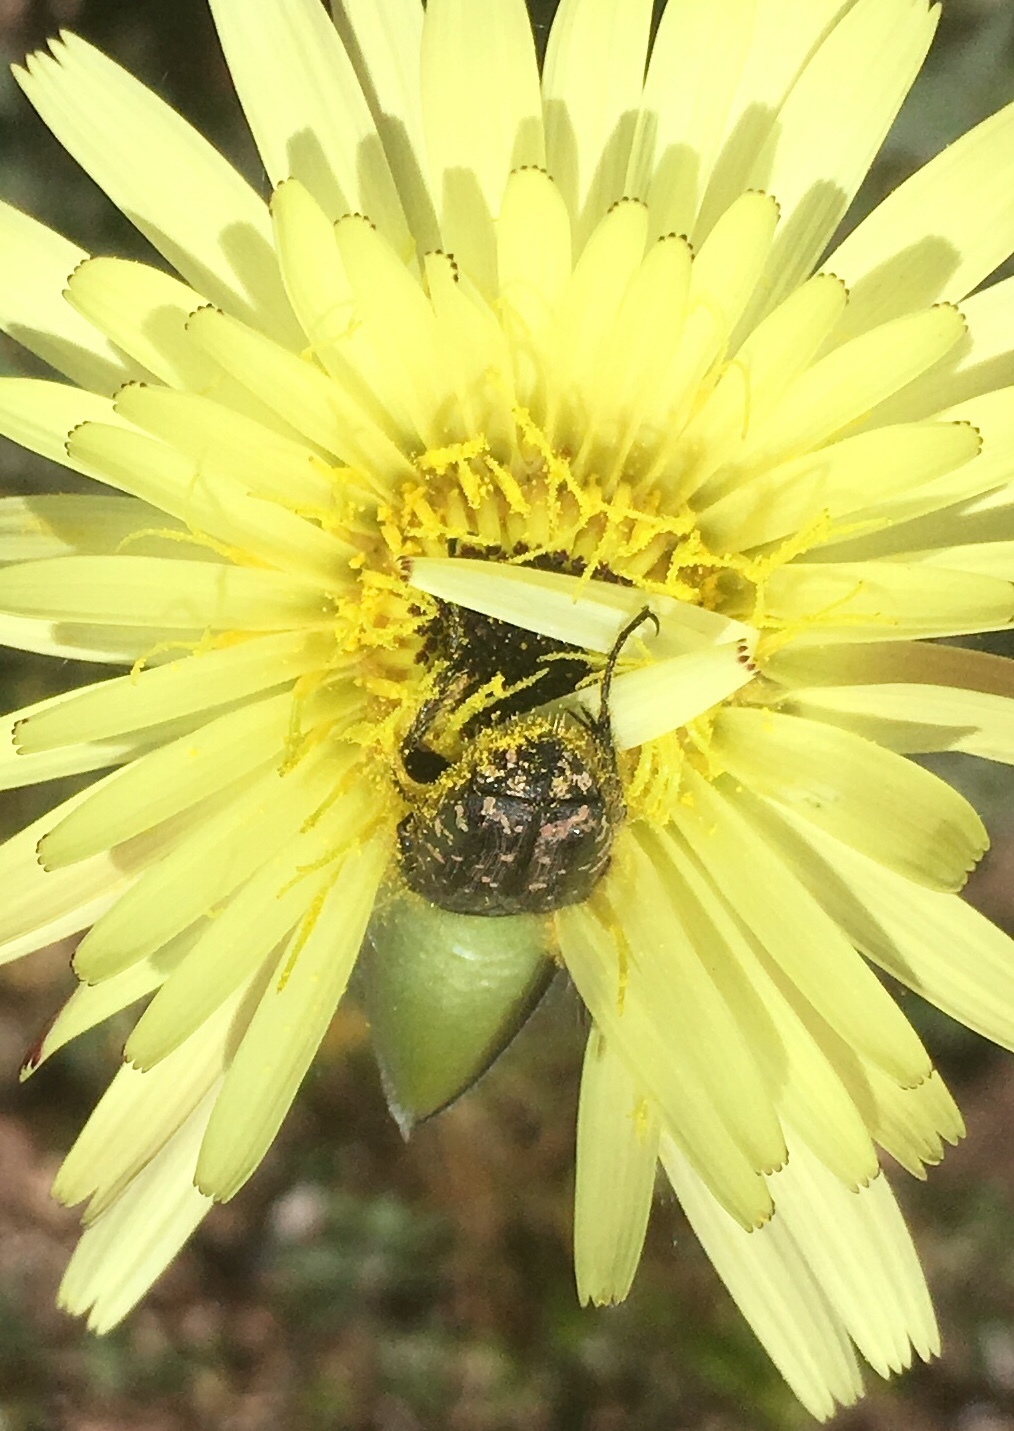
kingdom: Animalia
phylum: Arthropoda
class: Insecta
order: Coleoptera
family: Scarabaeidae
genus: Oxythyrea
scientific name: Oxythyrea funesta
